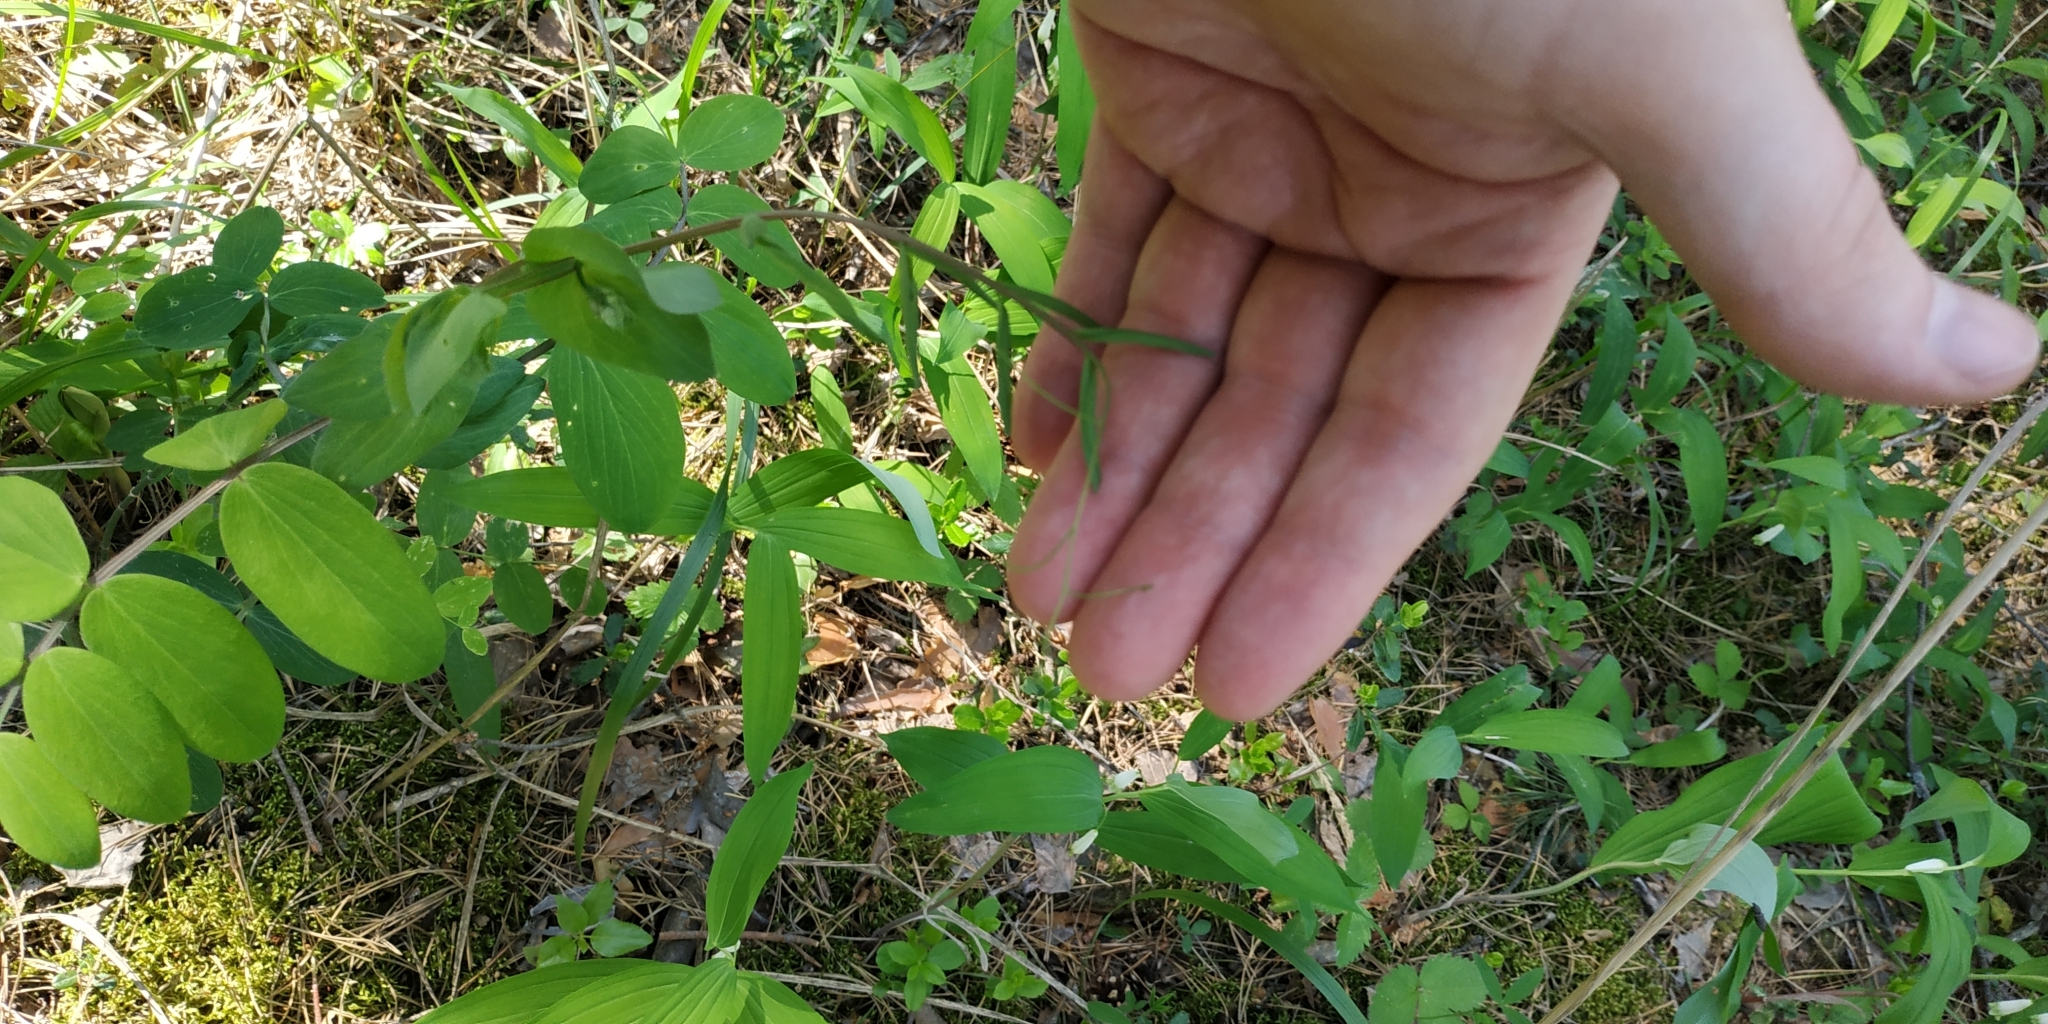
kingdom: Plantae
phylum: Tracheophyta
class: Magnoliopsida
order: Fabales
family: Fabaceae
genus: Lathyrus
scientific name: Lathyrus pisiformis
